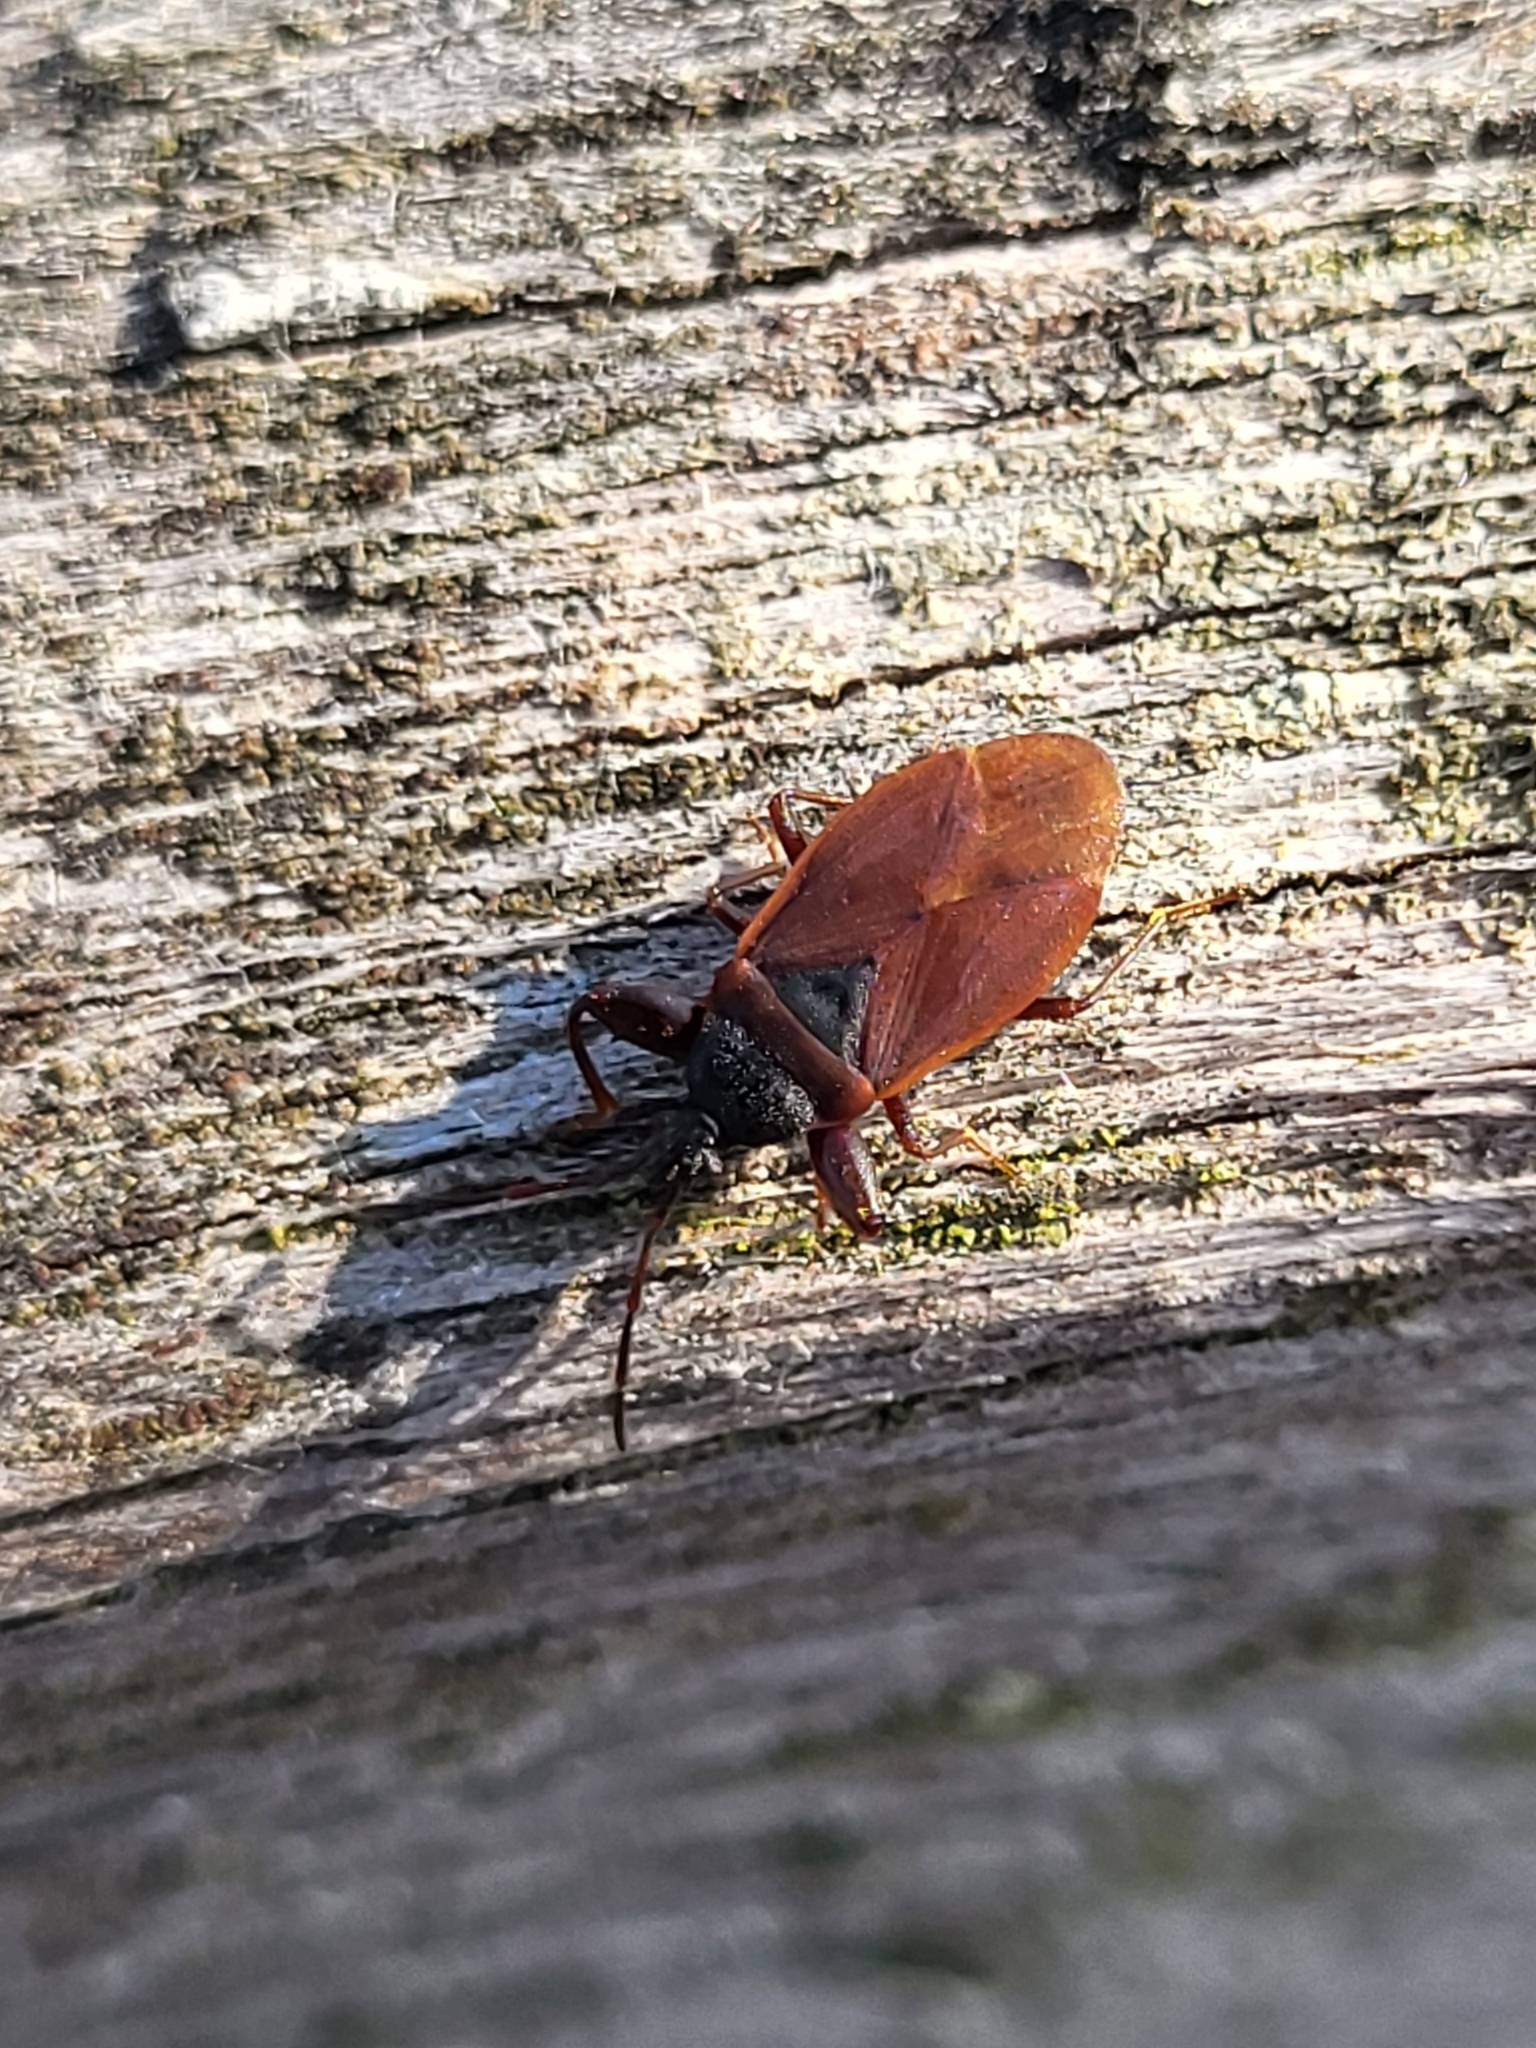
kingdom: Animalia
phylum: Arthropoda
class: Insecta
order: Hemiptera
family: Rhyparochromidae
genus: Gastrodes
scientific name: Gastrodes grossipes
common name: Pine cone bug
